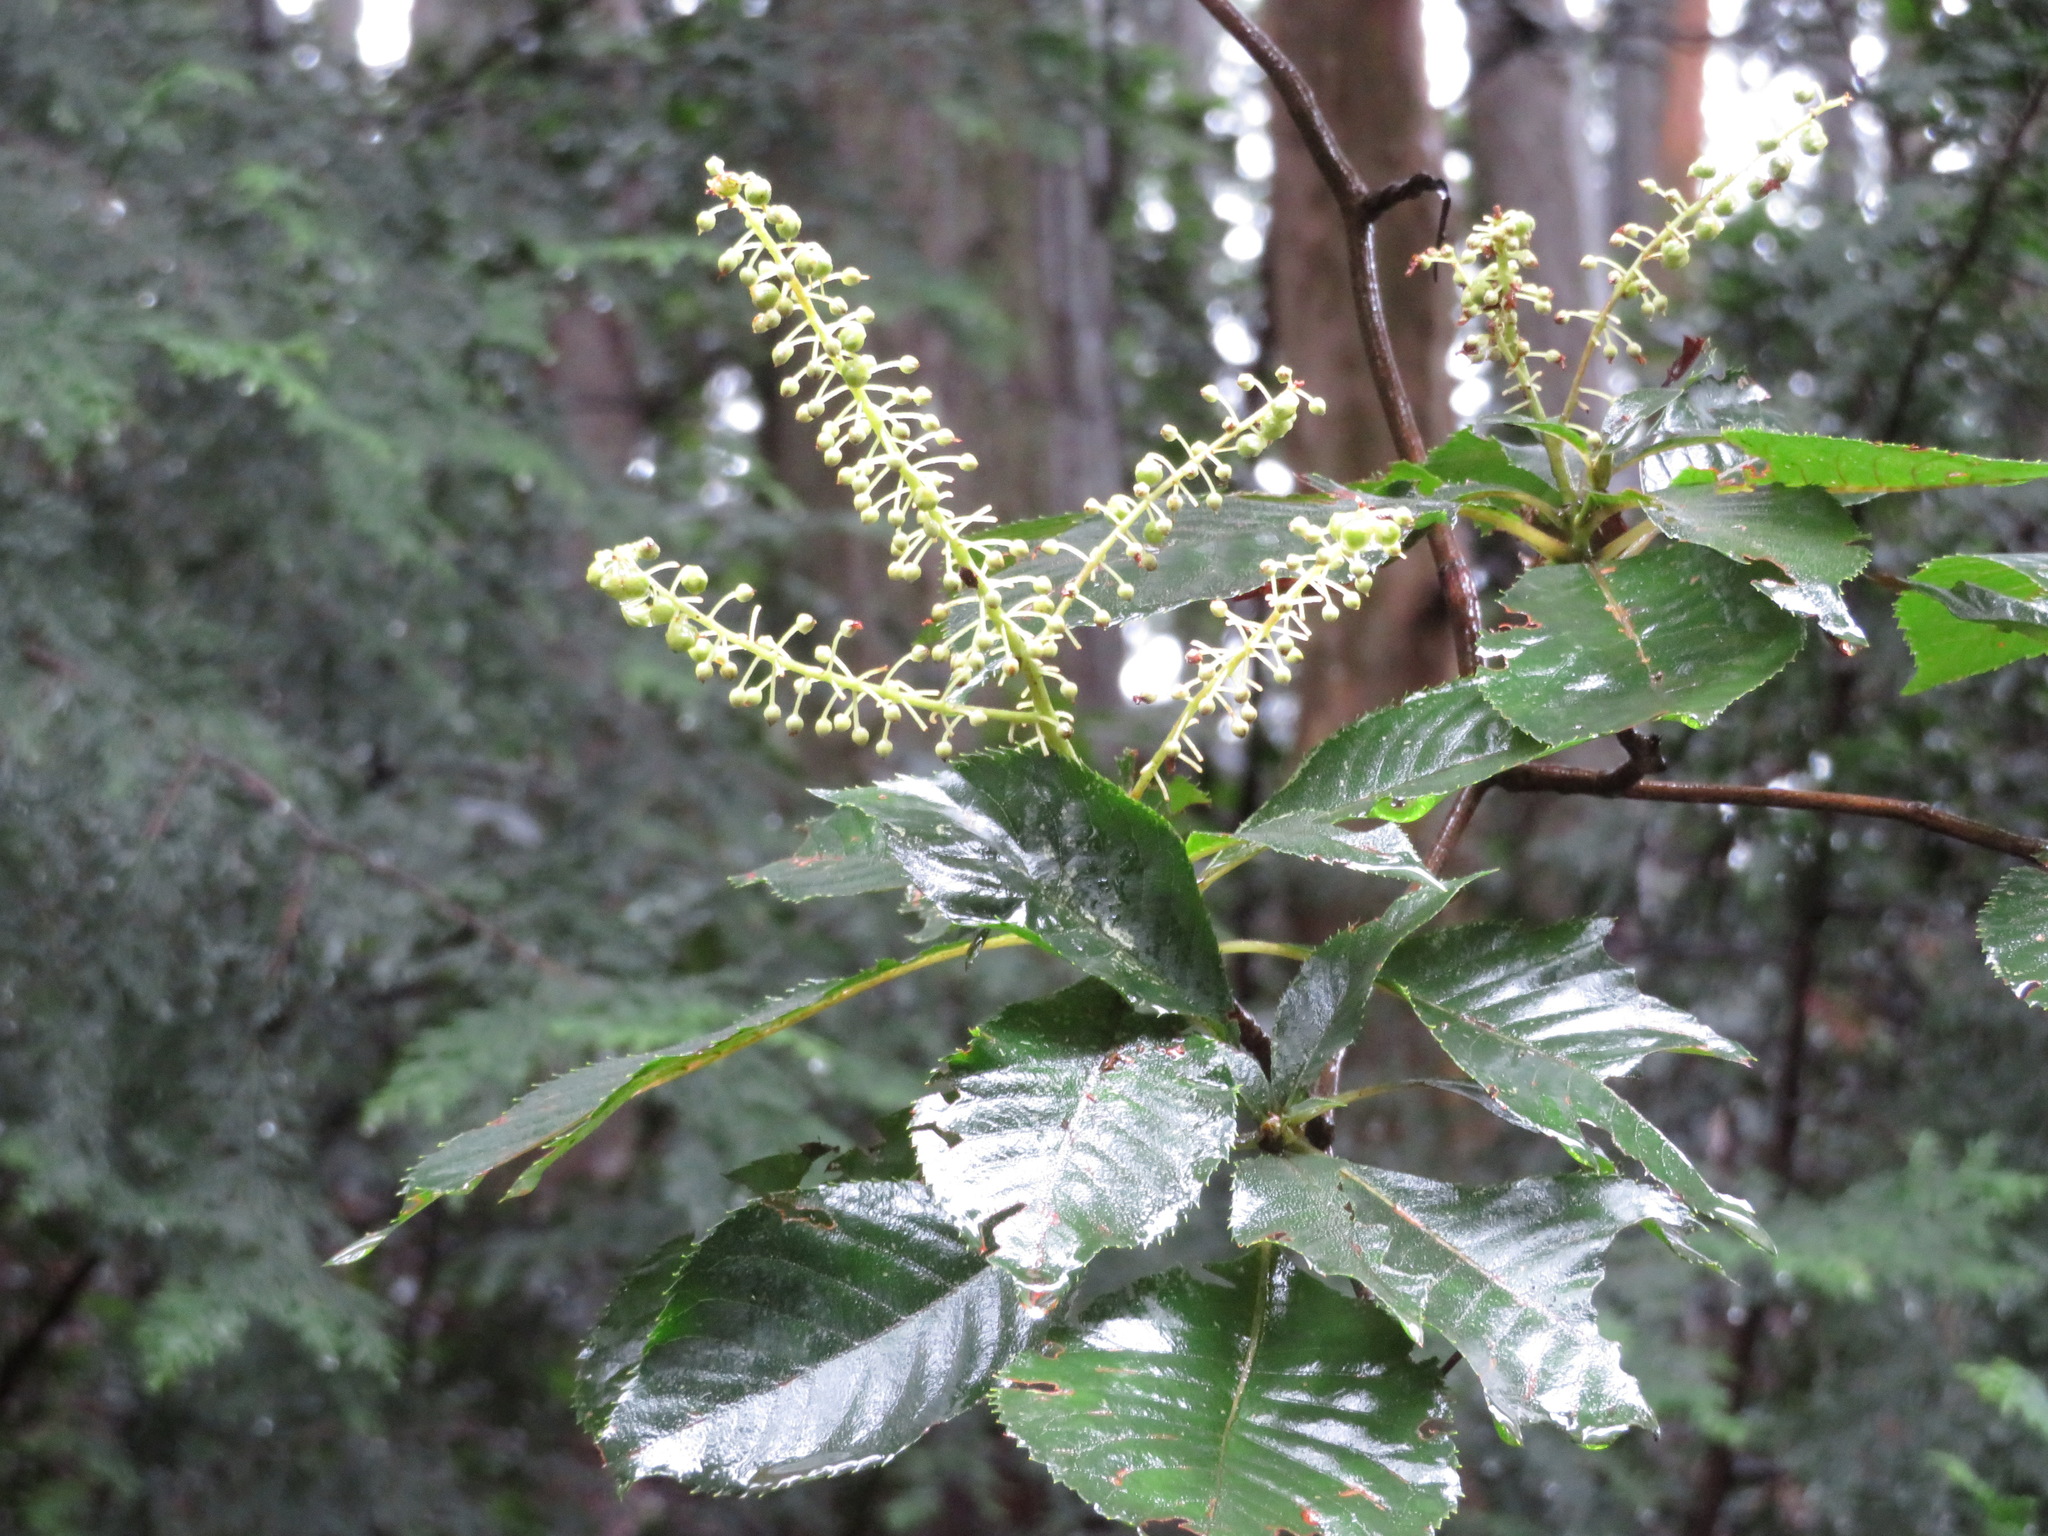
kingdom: Plantae
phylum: Tracheophyta
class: Magnoliopsida
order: Ericales
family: Clethraceae
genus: Clethra
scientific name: Clethra barbinervis
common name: Japanese clethra
